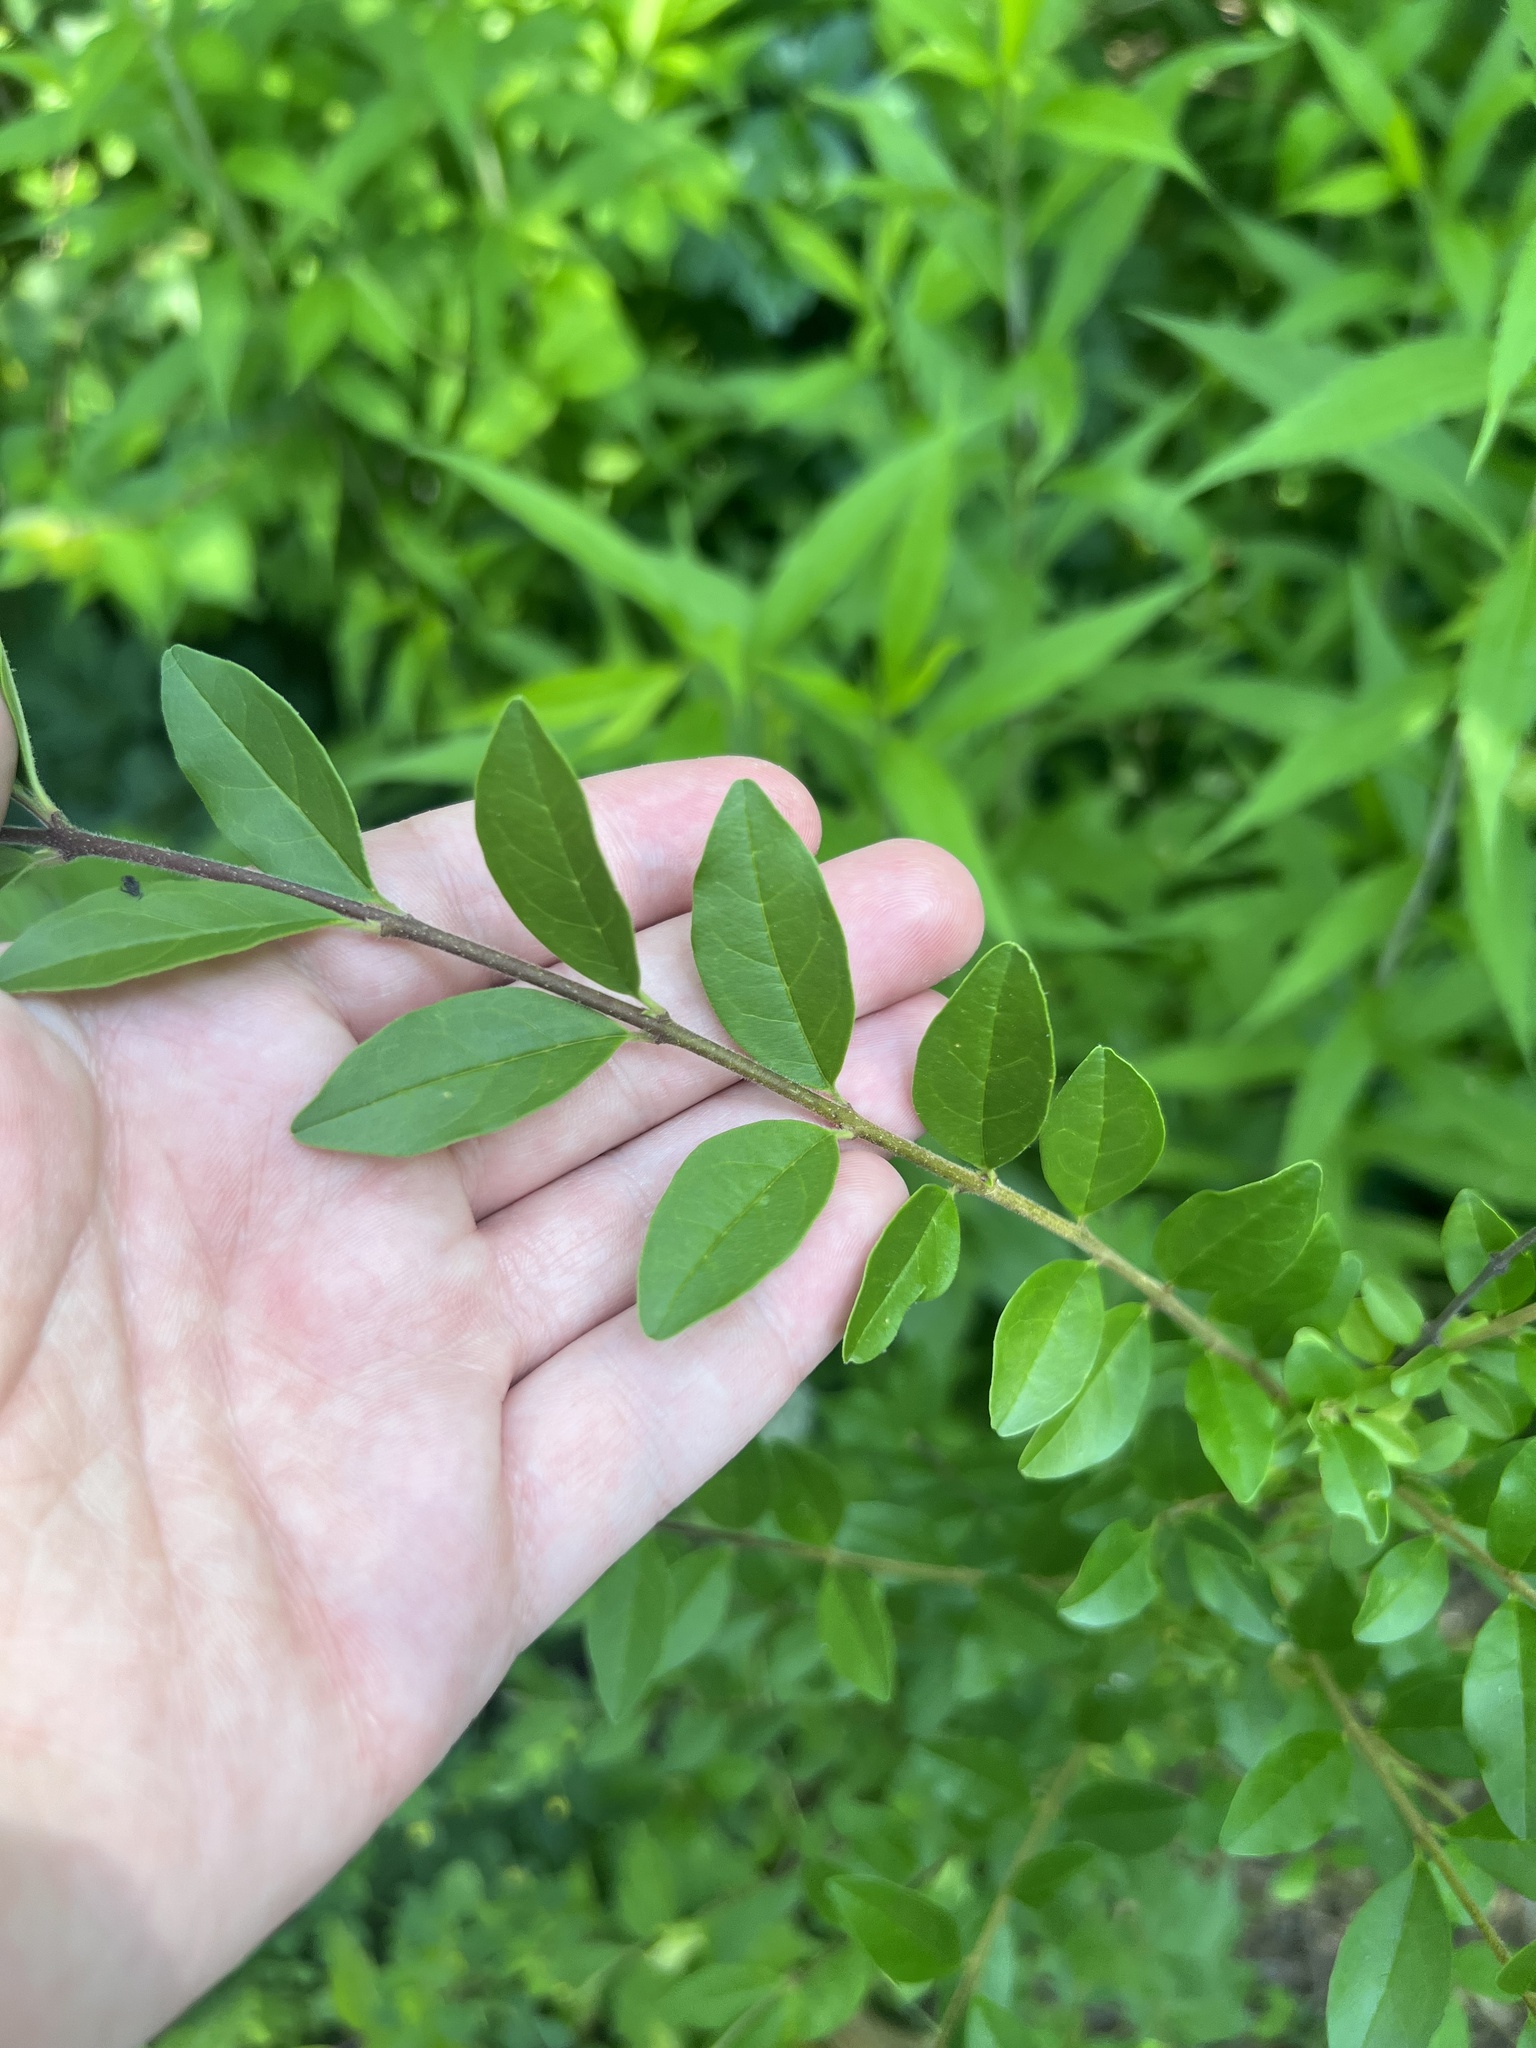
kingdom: Plantae
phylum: Tracheophyta
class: Magnoliopsida
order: Lamiales
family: Oleaceae
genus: Ligustrum
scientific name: Ligustrum sinense
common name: Chinese privet
